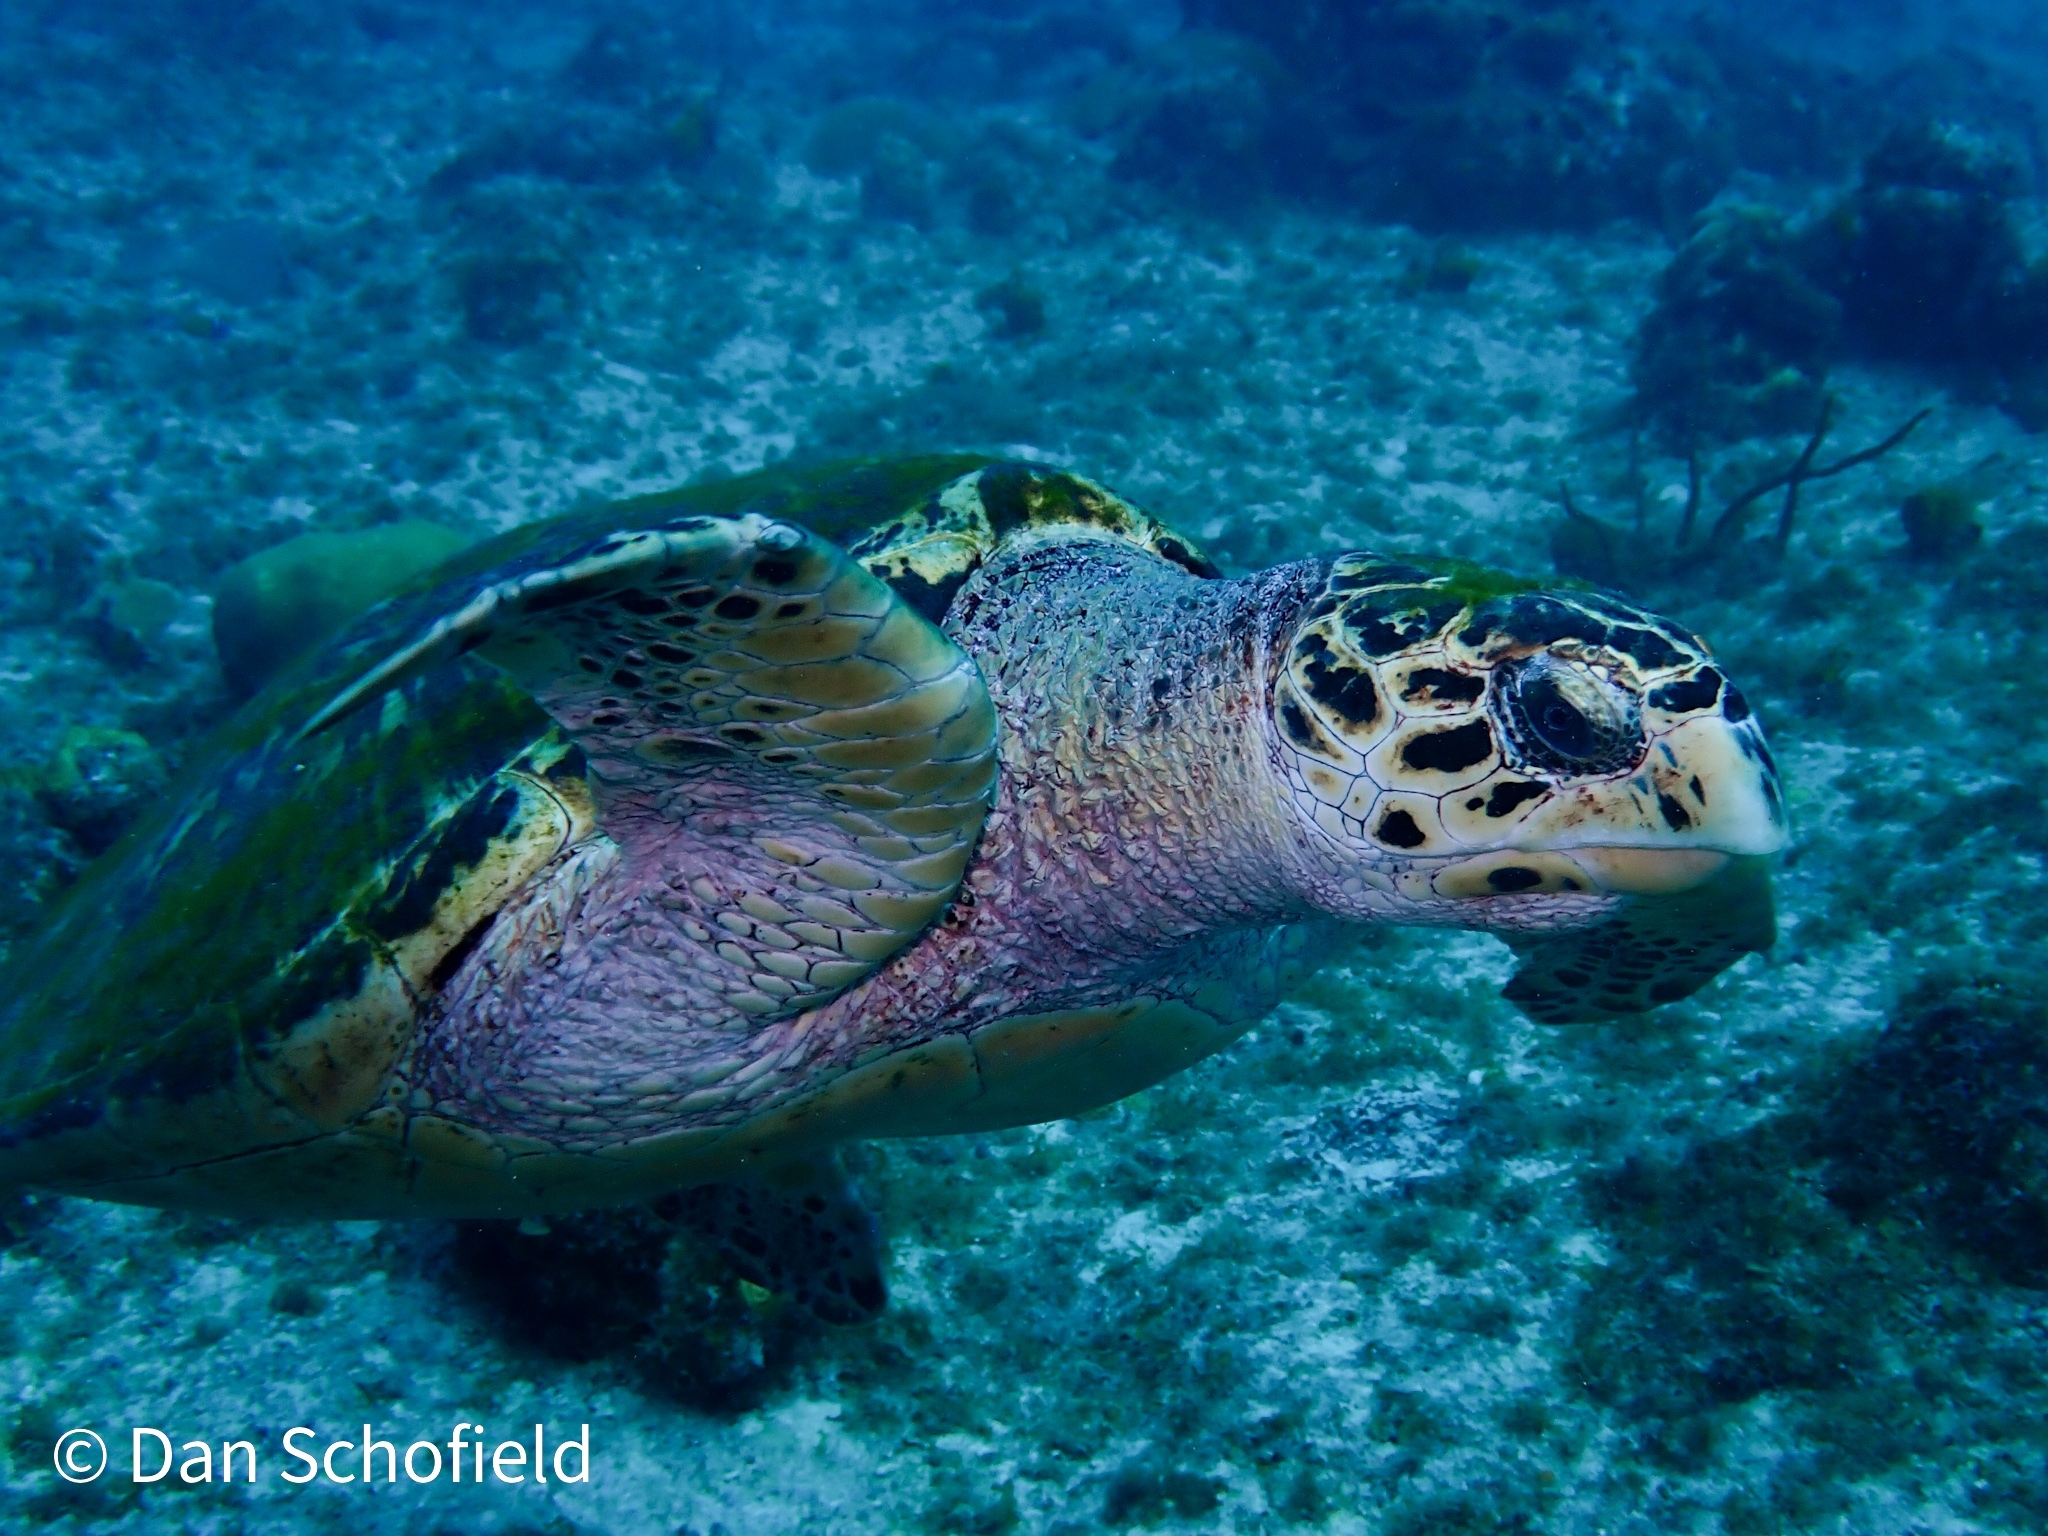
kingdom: Animalia
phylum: Chordata
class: Testudines
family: Cheloniidae
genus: Eretmochelys
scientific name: Eretmochelys imbricata
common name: Hawksbill turtle
